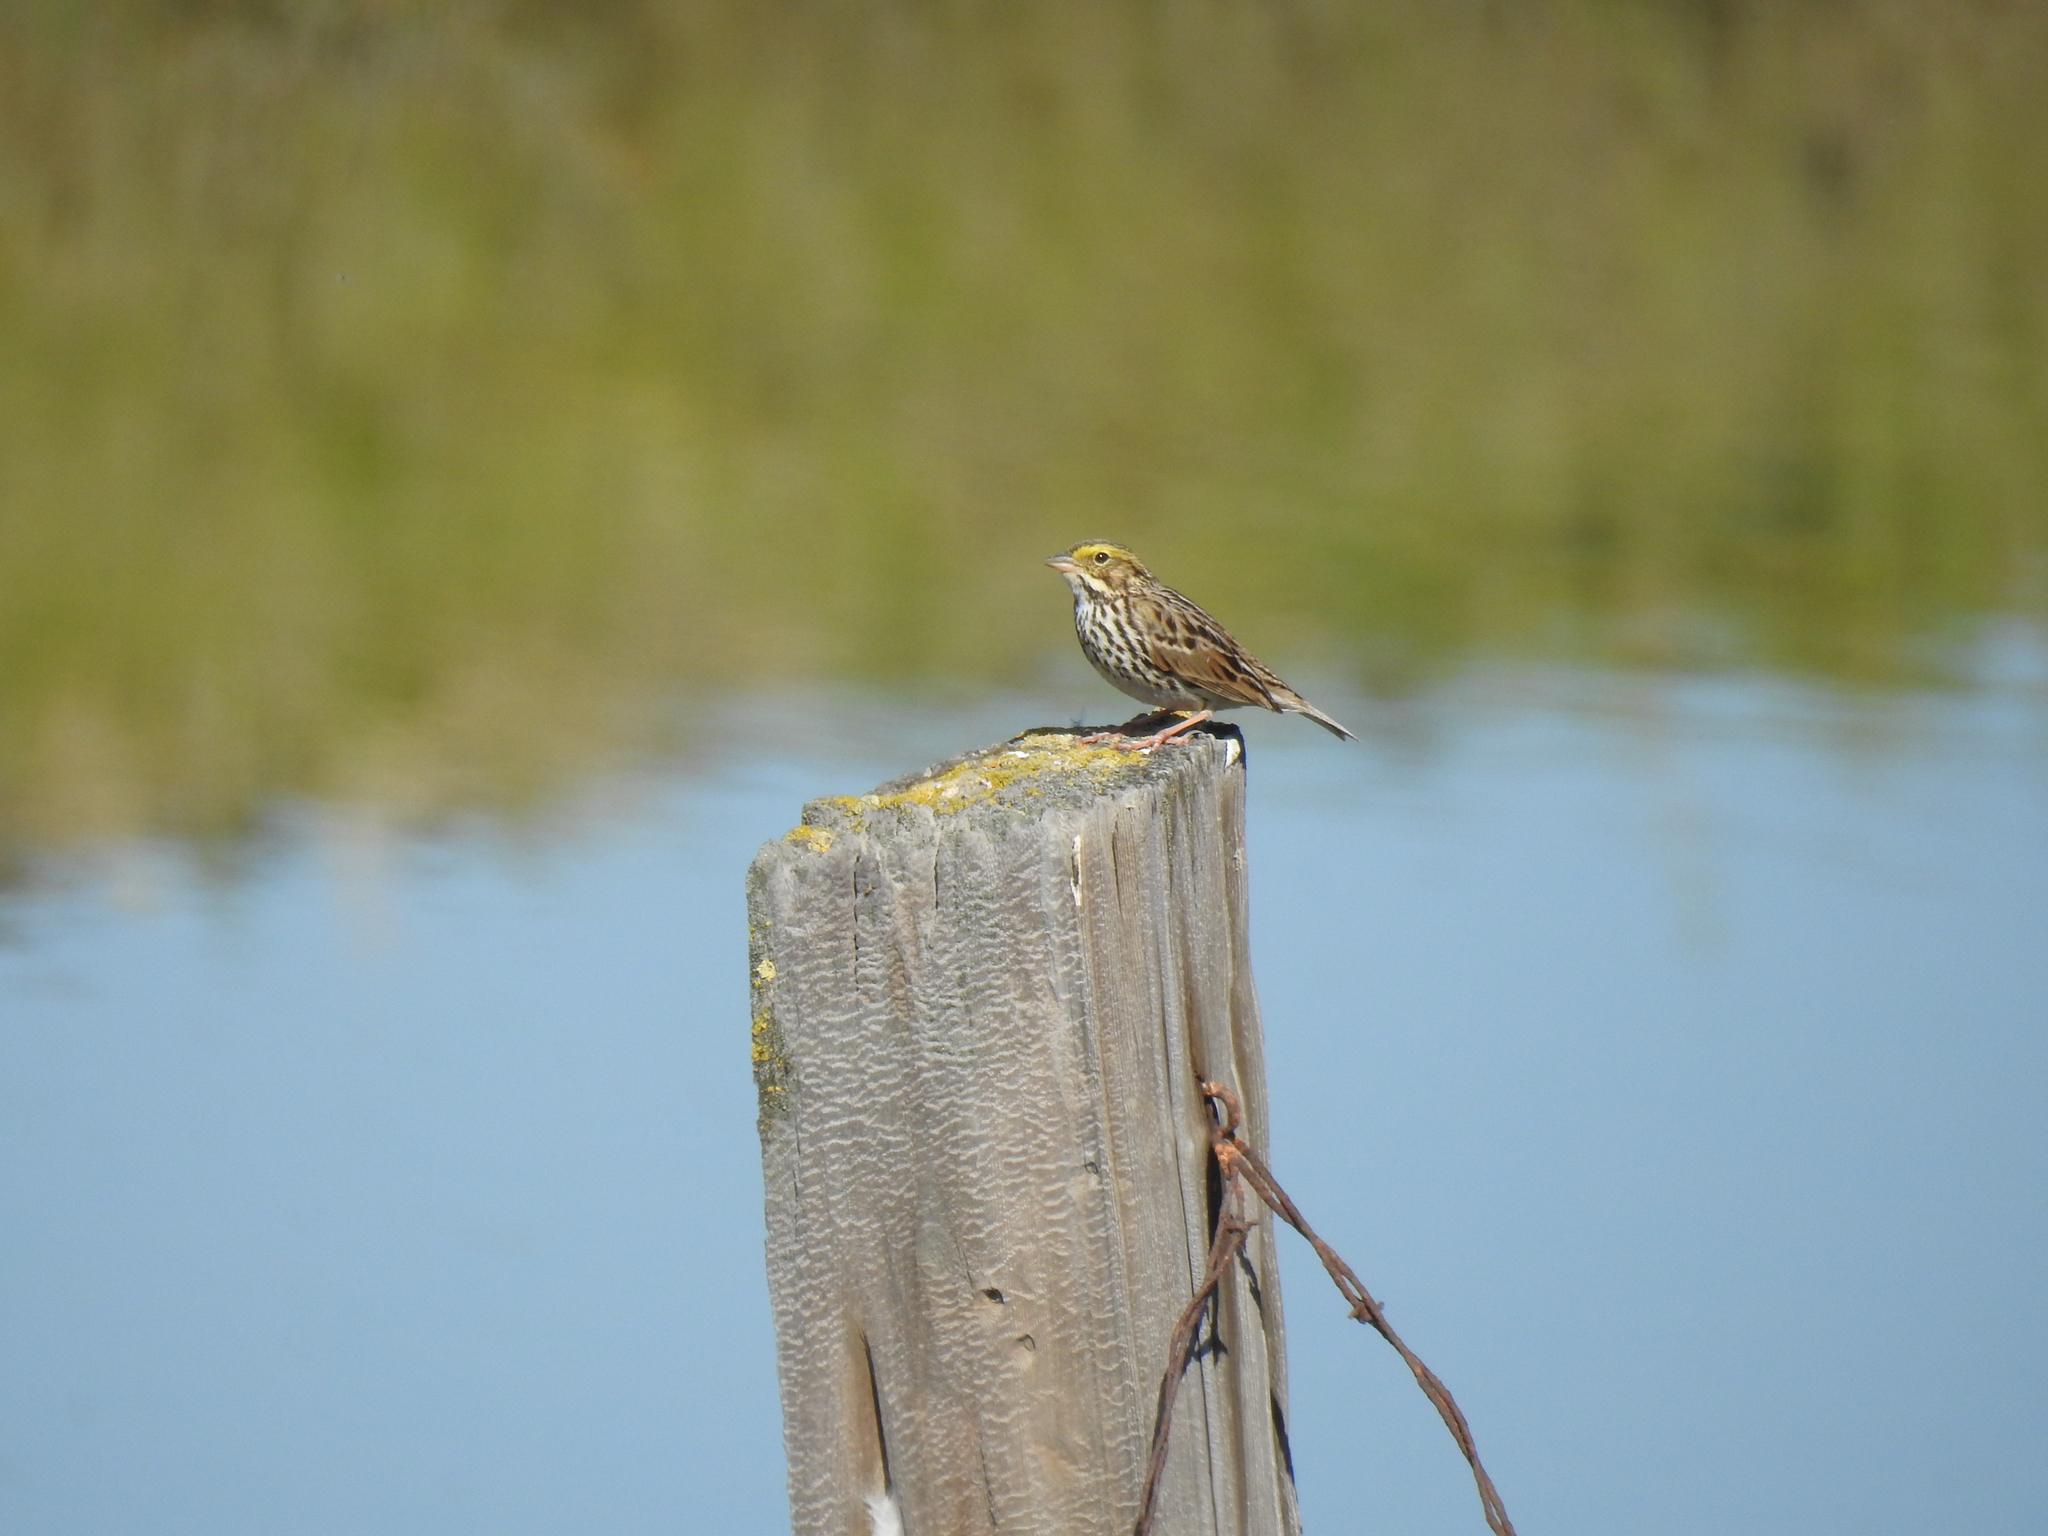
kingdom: Animalia
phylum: Chordata
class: Aves
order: Passeriformes
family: Passerellidae
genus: Passerculus
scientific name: Passerculus sandwichensis
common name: Savannah sparrow
